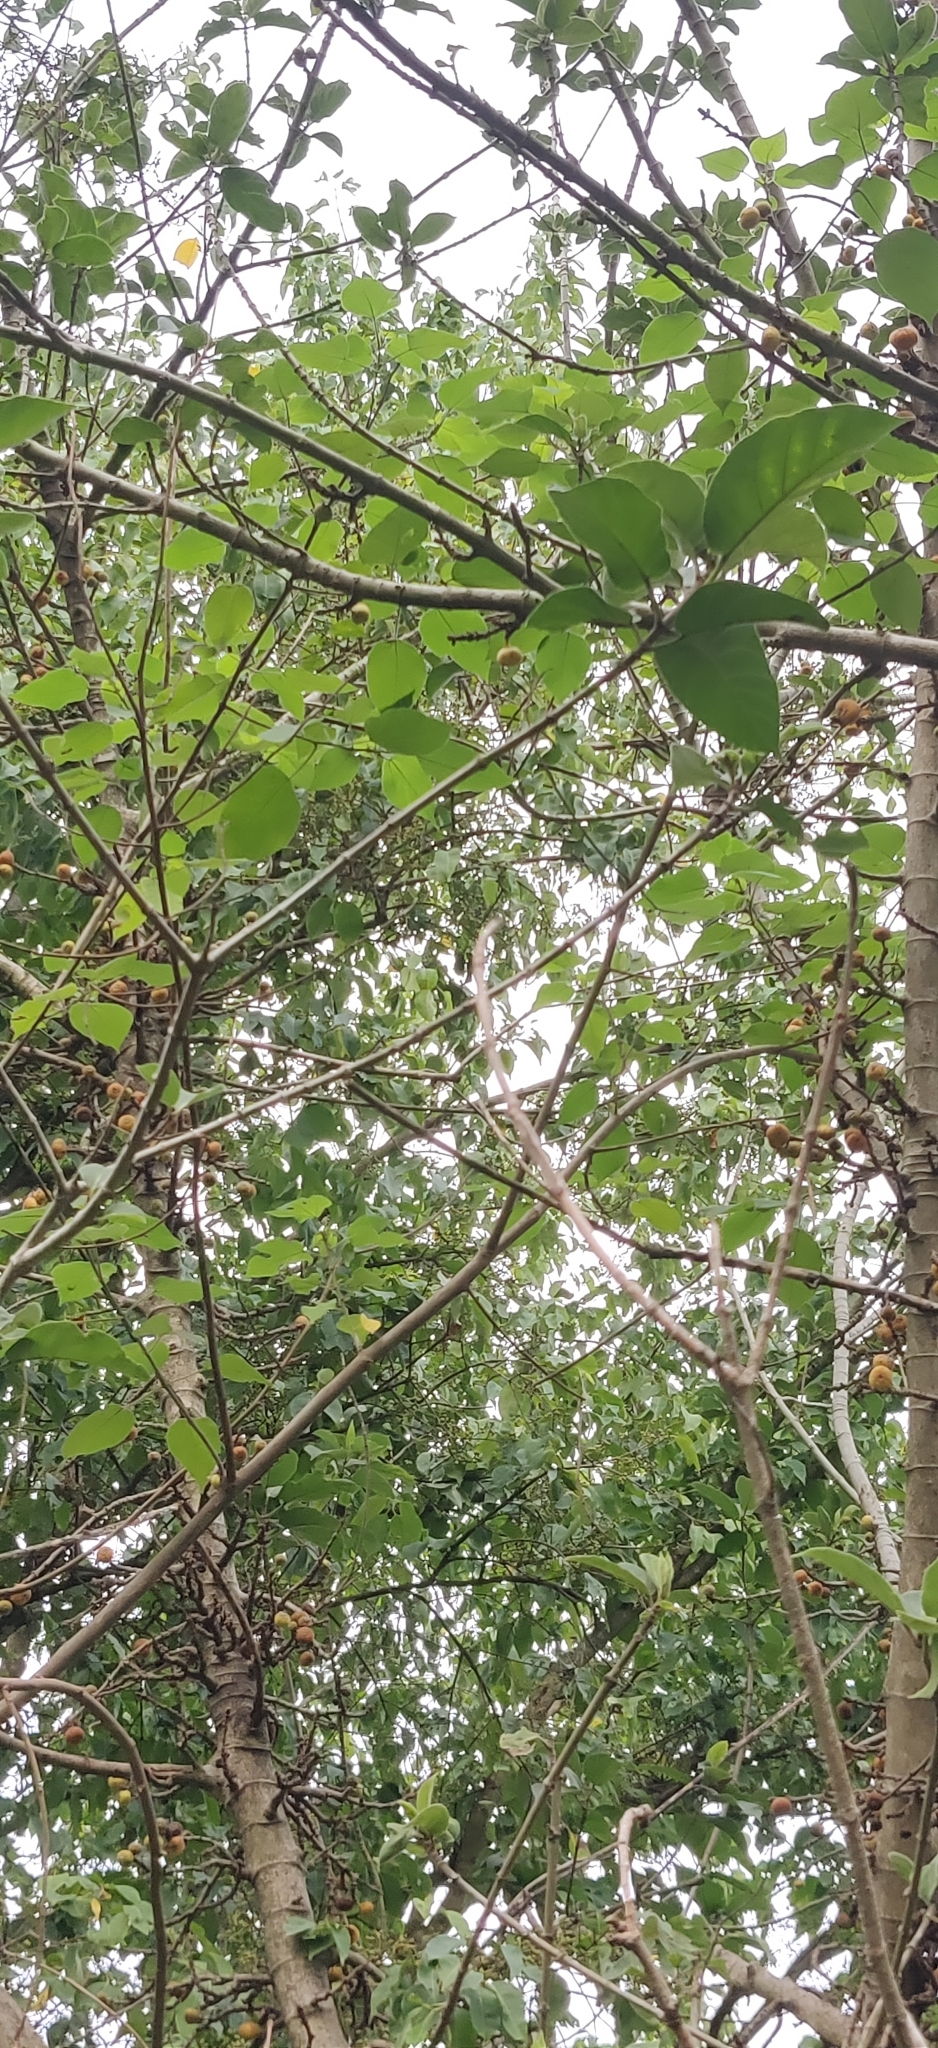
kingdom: Plantae
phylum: Tracheophyta
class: Magnoliopsida
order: Rosales
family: Moraceae
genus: Ficus
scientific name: Ficus hispida
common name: Hairy fig
